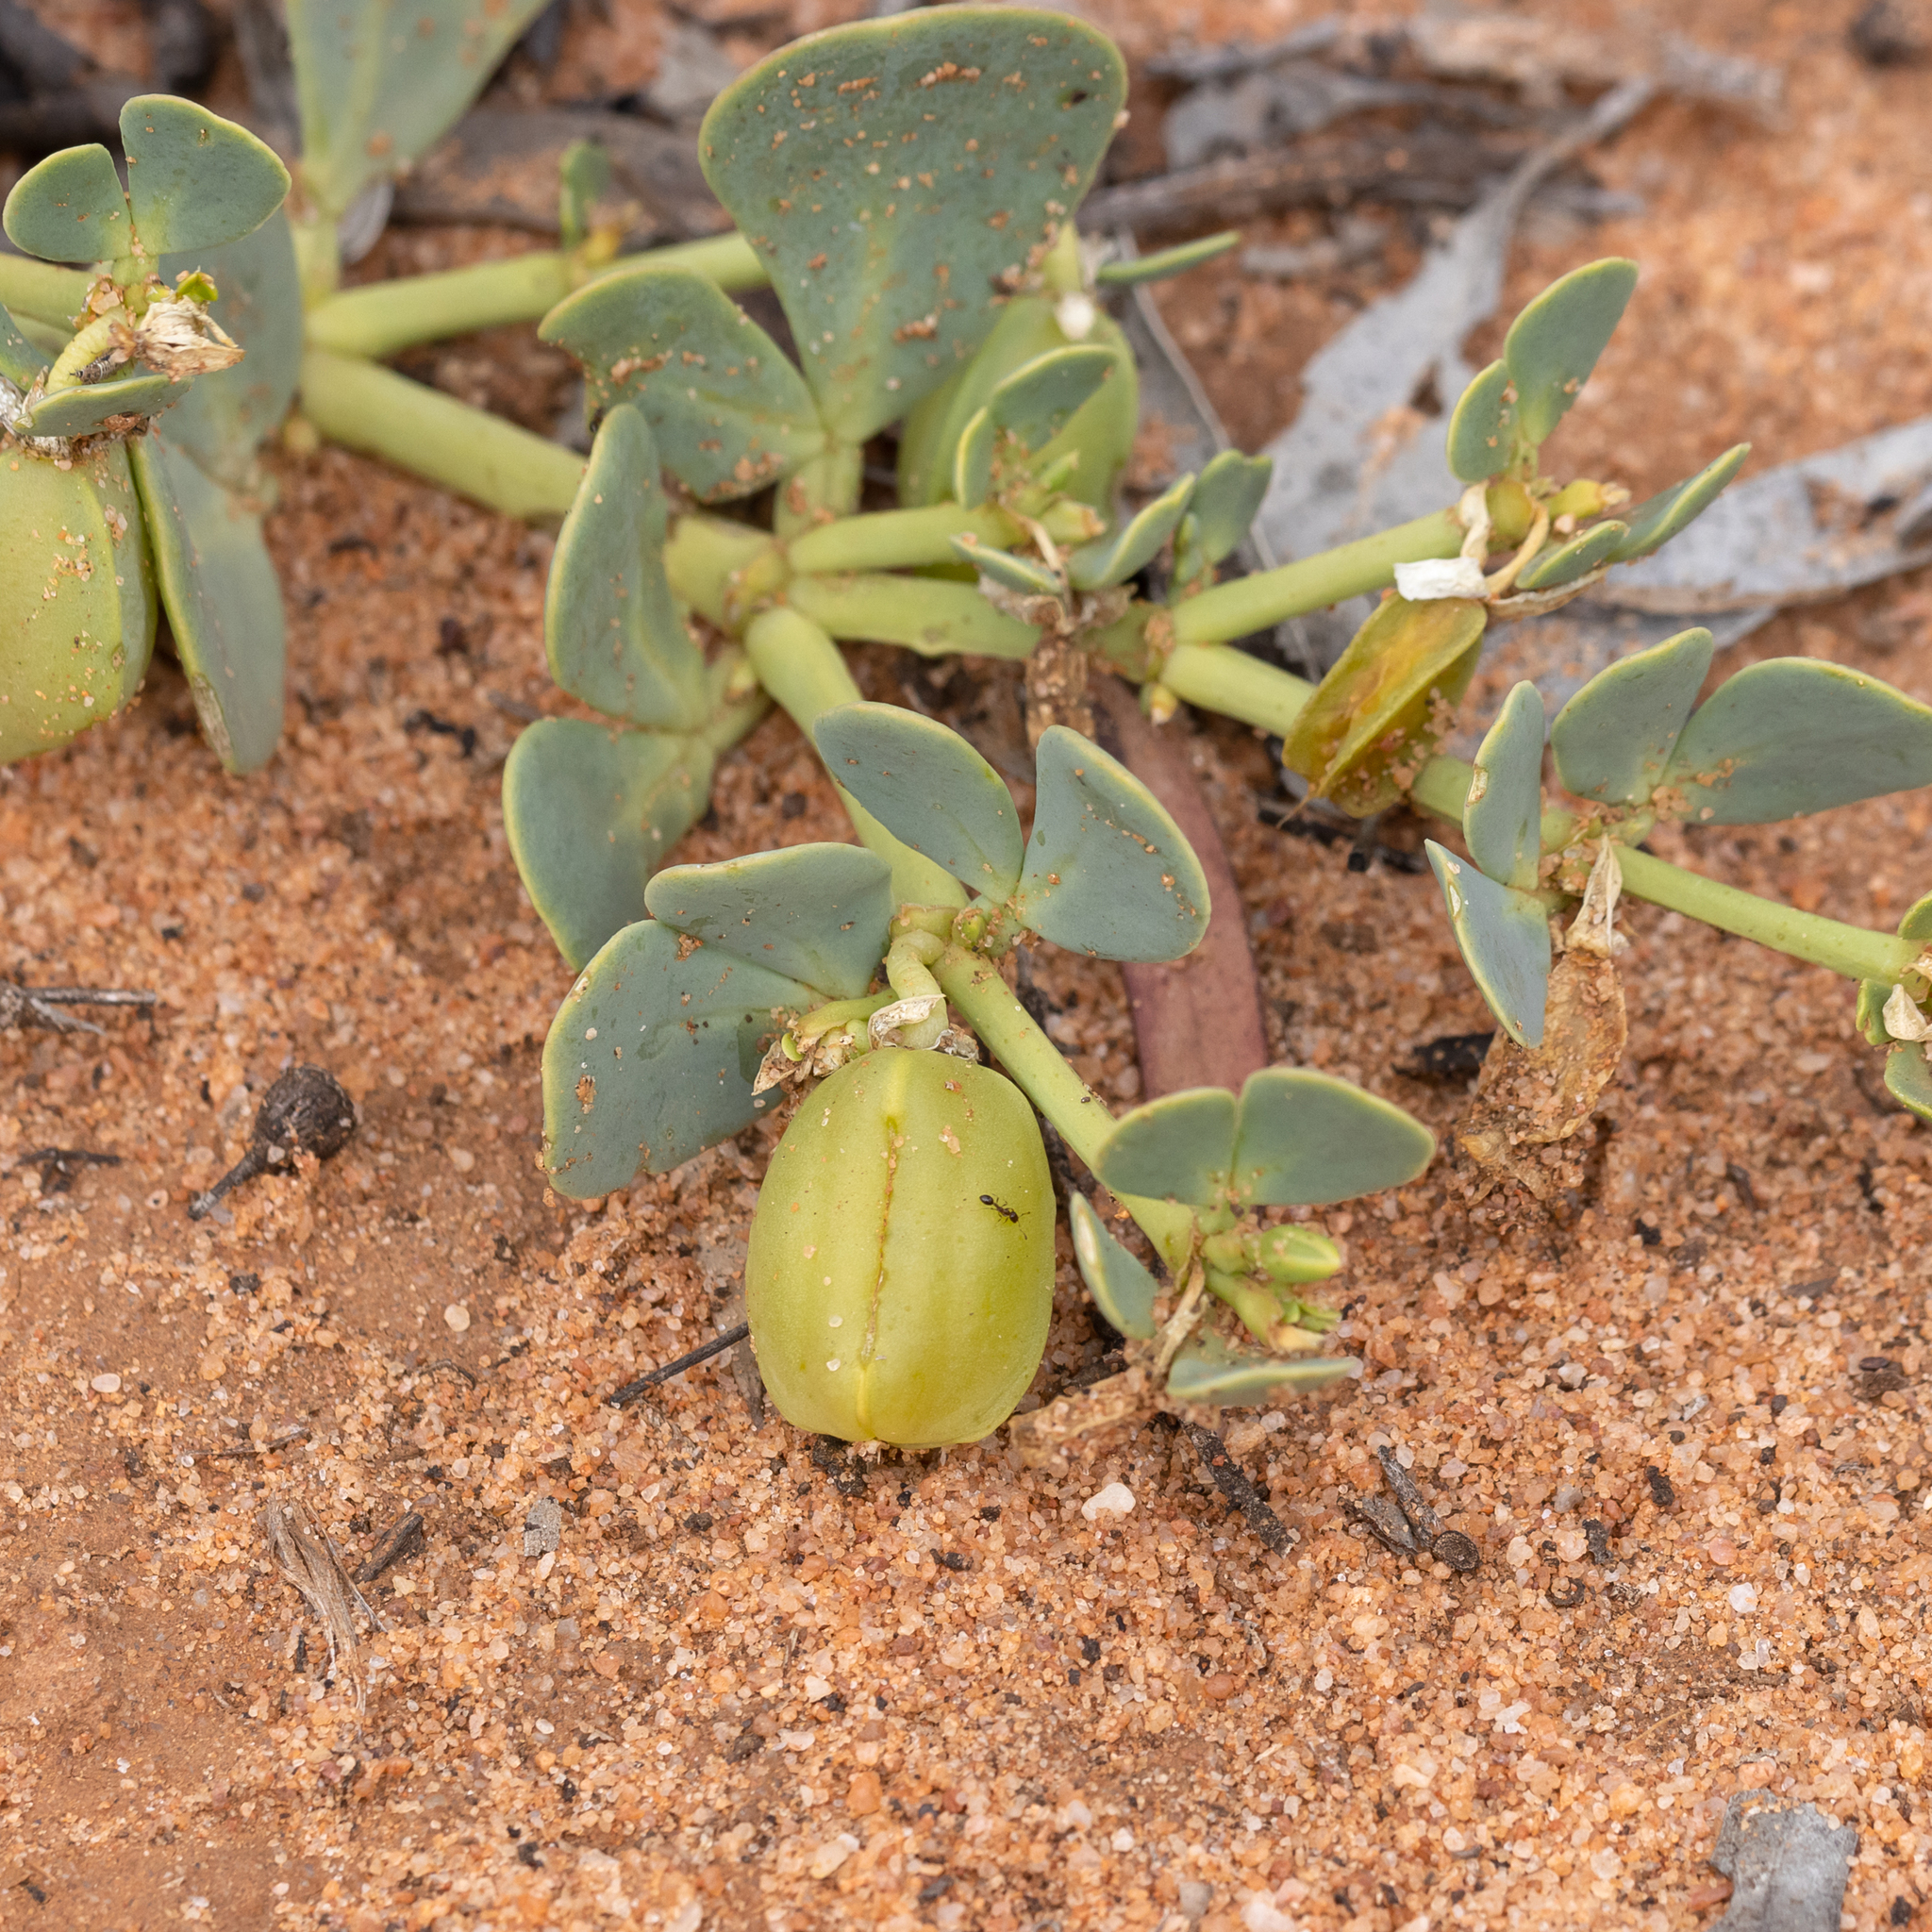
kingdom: Plantae
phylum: Tracheophyta
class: Magnoliopsida
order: Zygophyllales
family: Zygophyllaceae
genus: Roepera
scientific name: Roepera glauca
